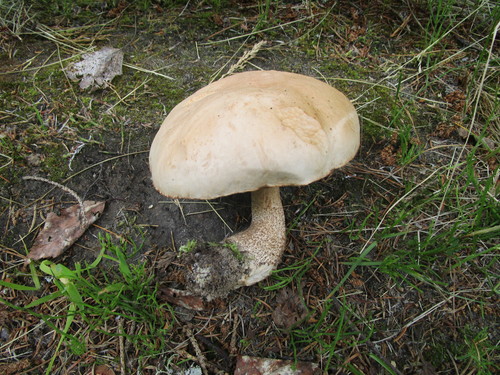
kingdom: Fungi
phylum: Basidiomycota
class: Agaricomycetes
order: Boletales
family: Boletaceae
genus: Leccinum
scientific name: Leccinum scabrum
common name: Blushing bolete
